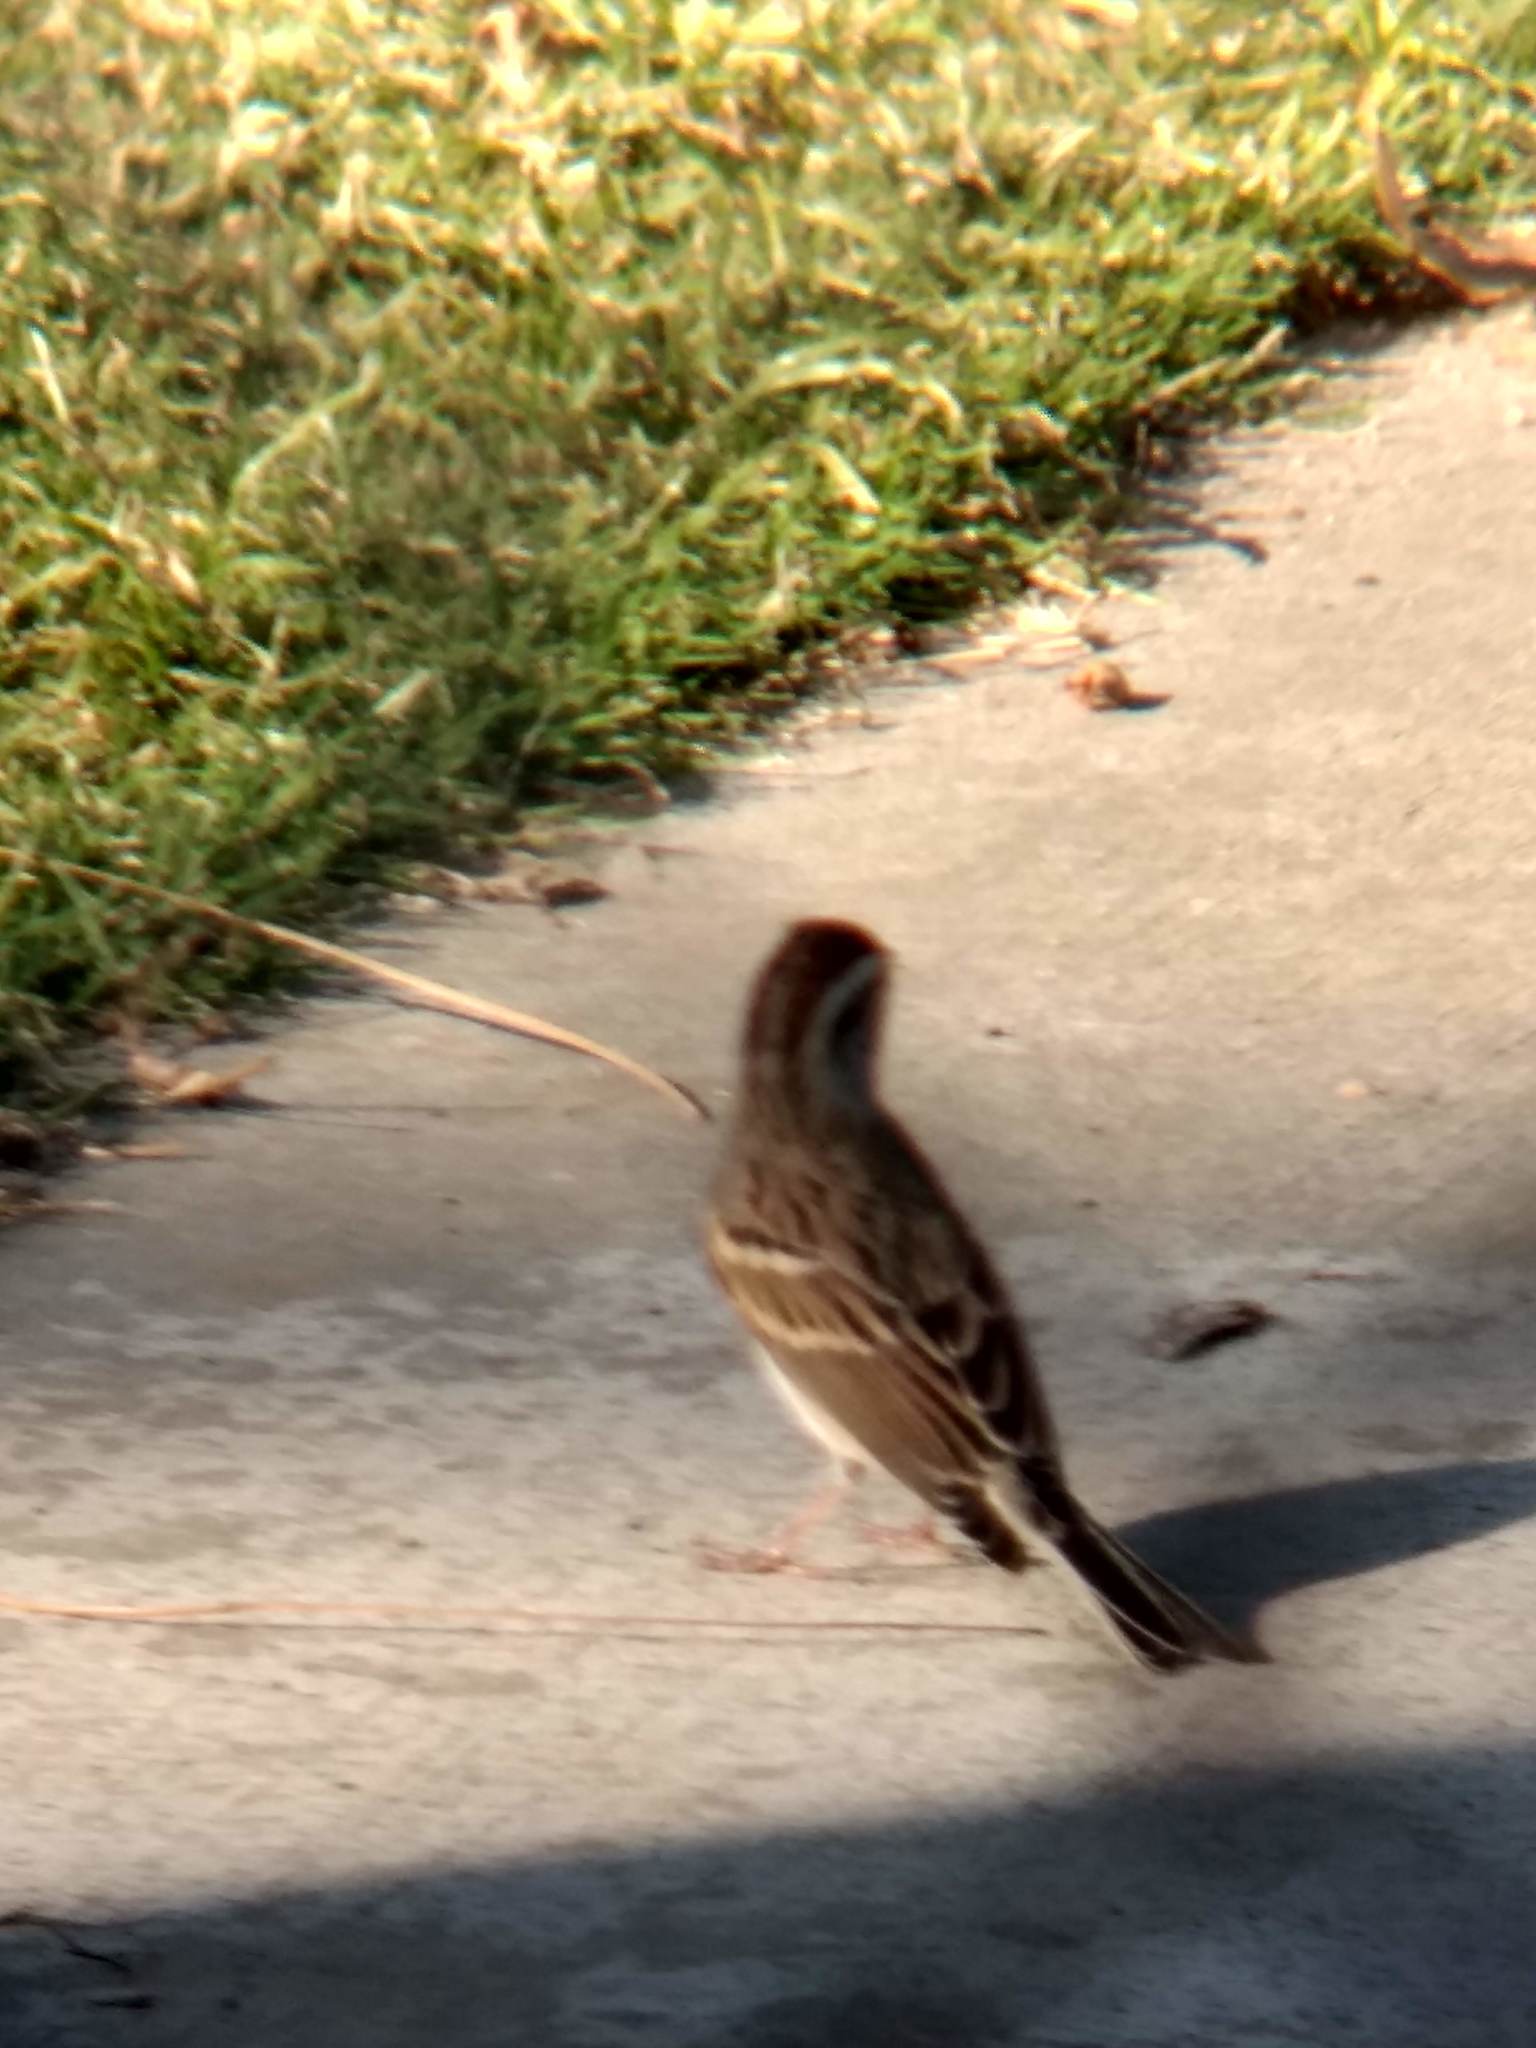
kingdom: Animalia
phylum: Chordata
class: Aves
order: Passeriformes
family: Passerellidae
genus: Spizella
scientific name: Spizella passerina
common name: Chipping sparrow
